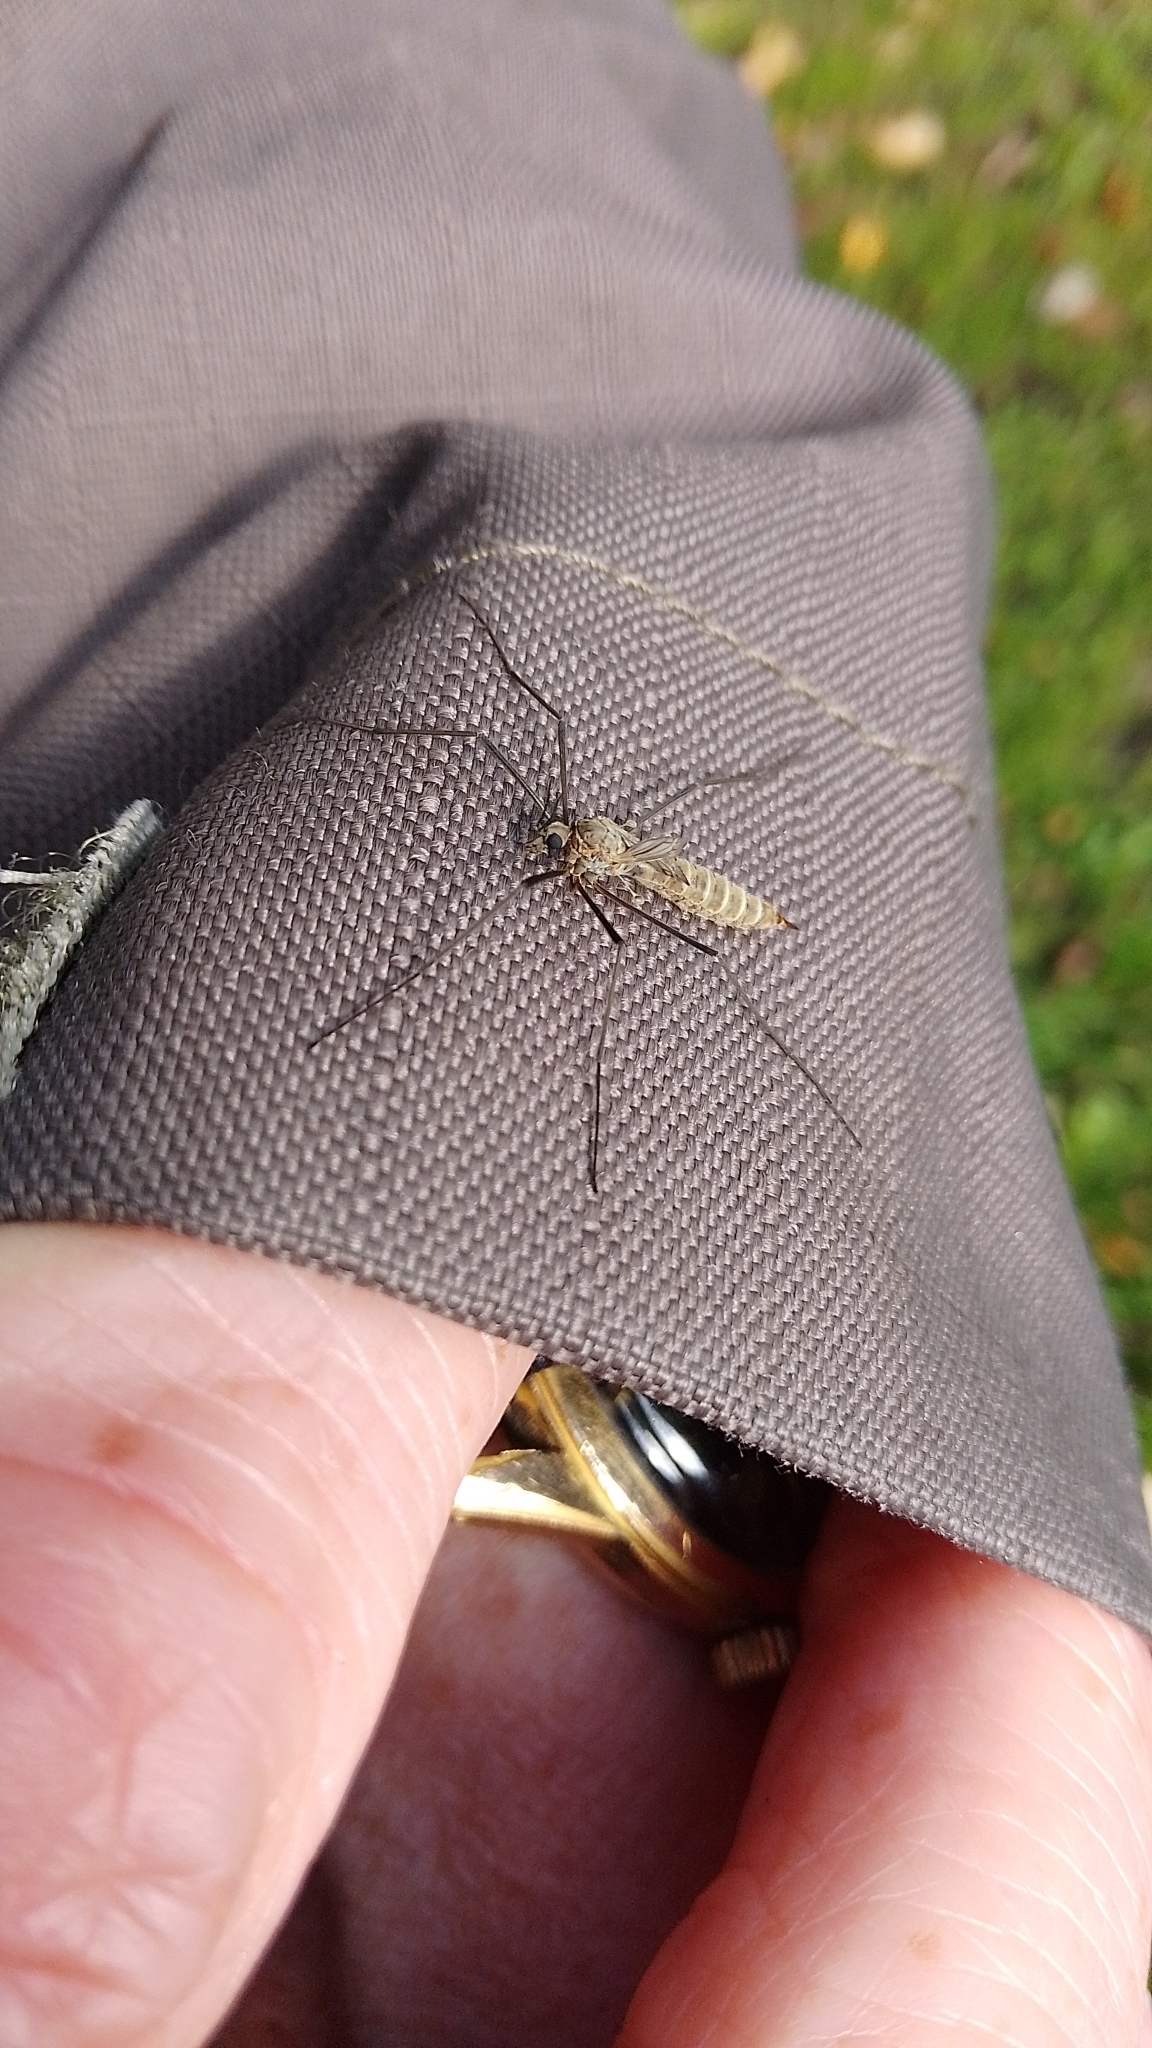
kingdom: Animalia
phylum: Arthropoda
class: Insecta
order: Diptera
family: Tipulidae
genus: Tipula
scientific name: Tipula pagana
